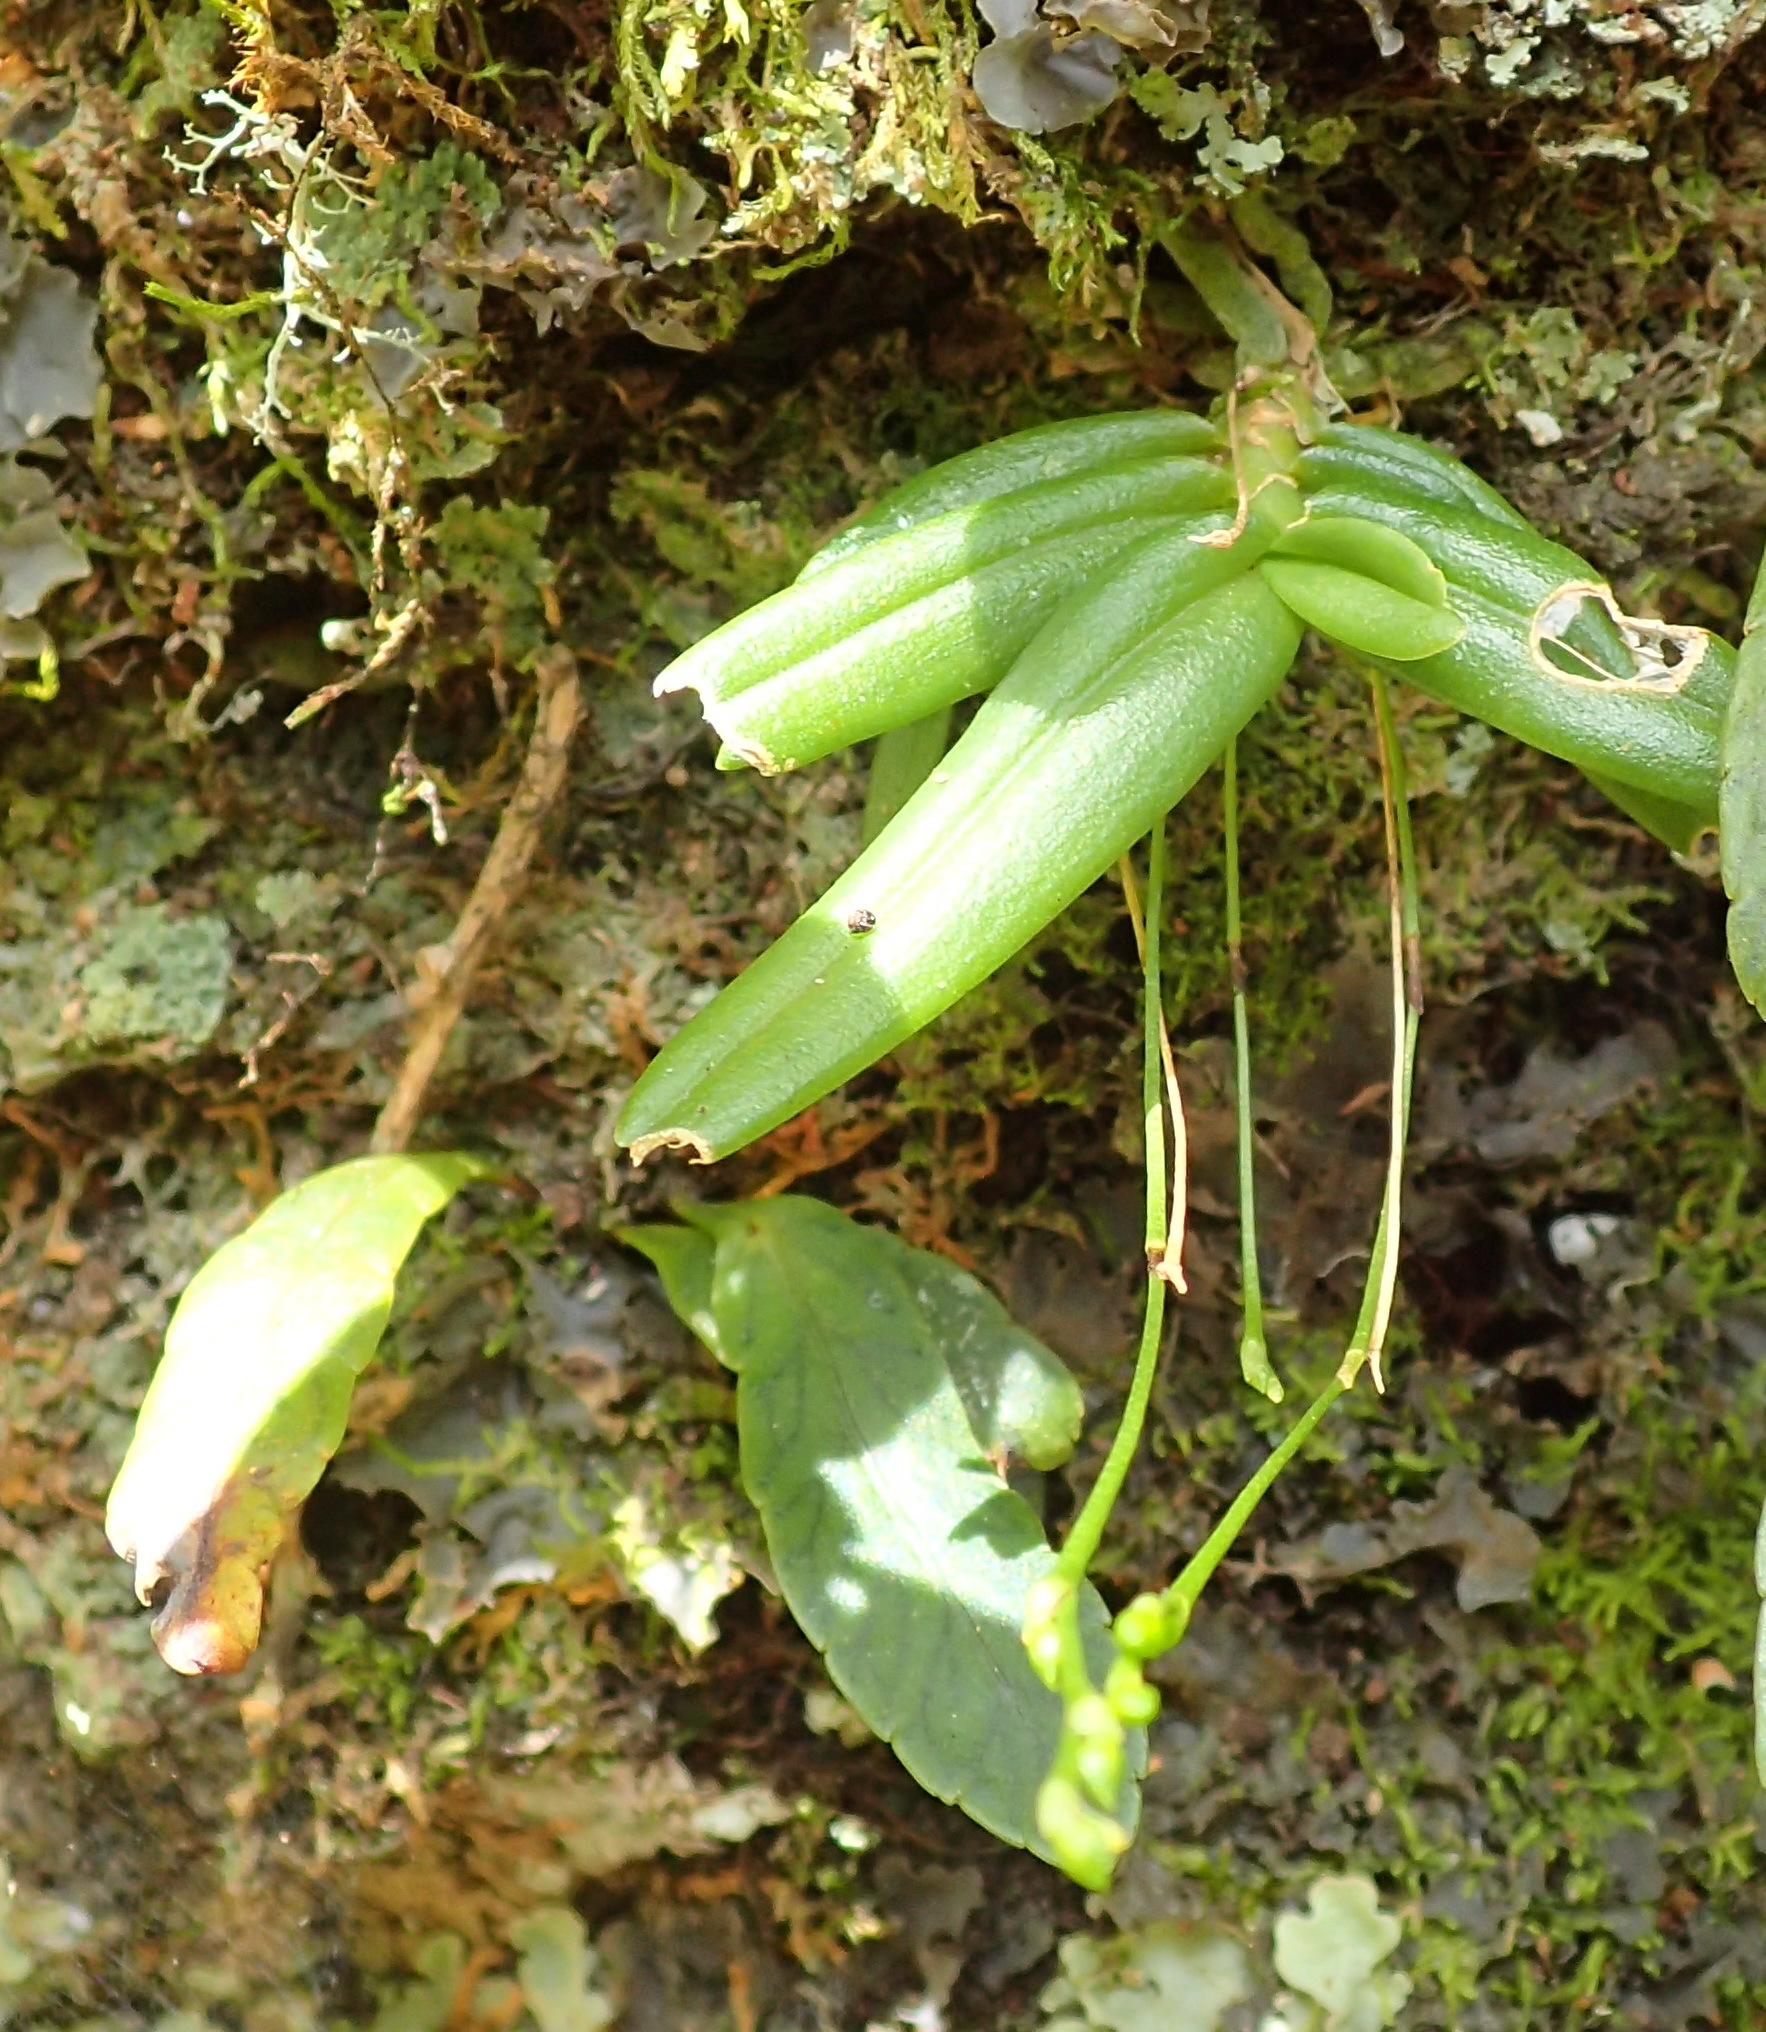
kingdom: Plantae
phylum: Tracheophyta
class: Liliopsida
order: Asparagales
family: Orchidaceae
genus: Angraecum
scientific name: Angraecum sacciferum
